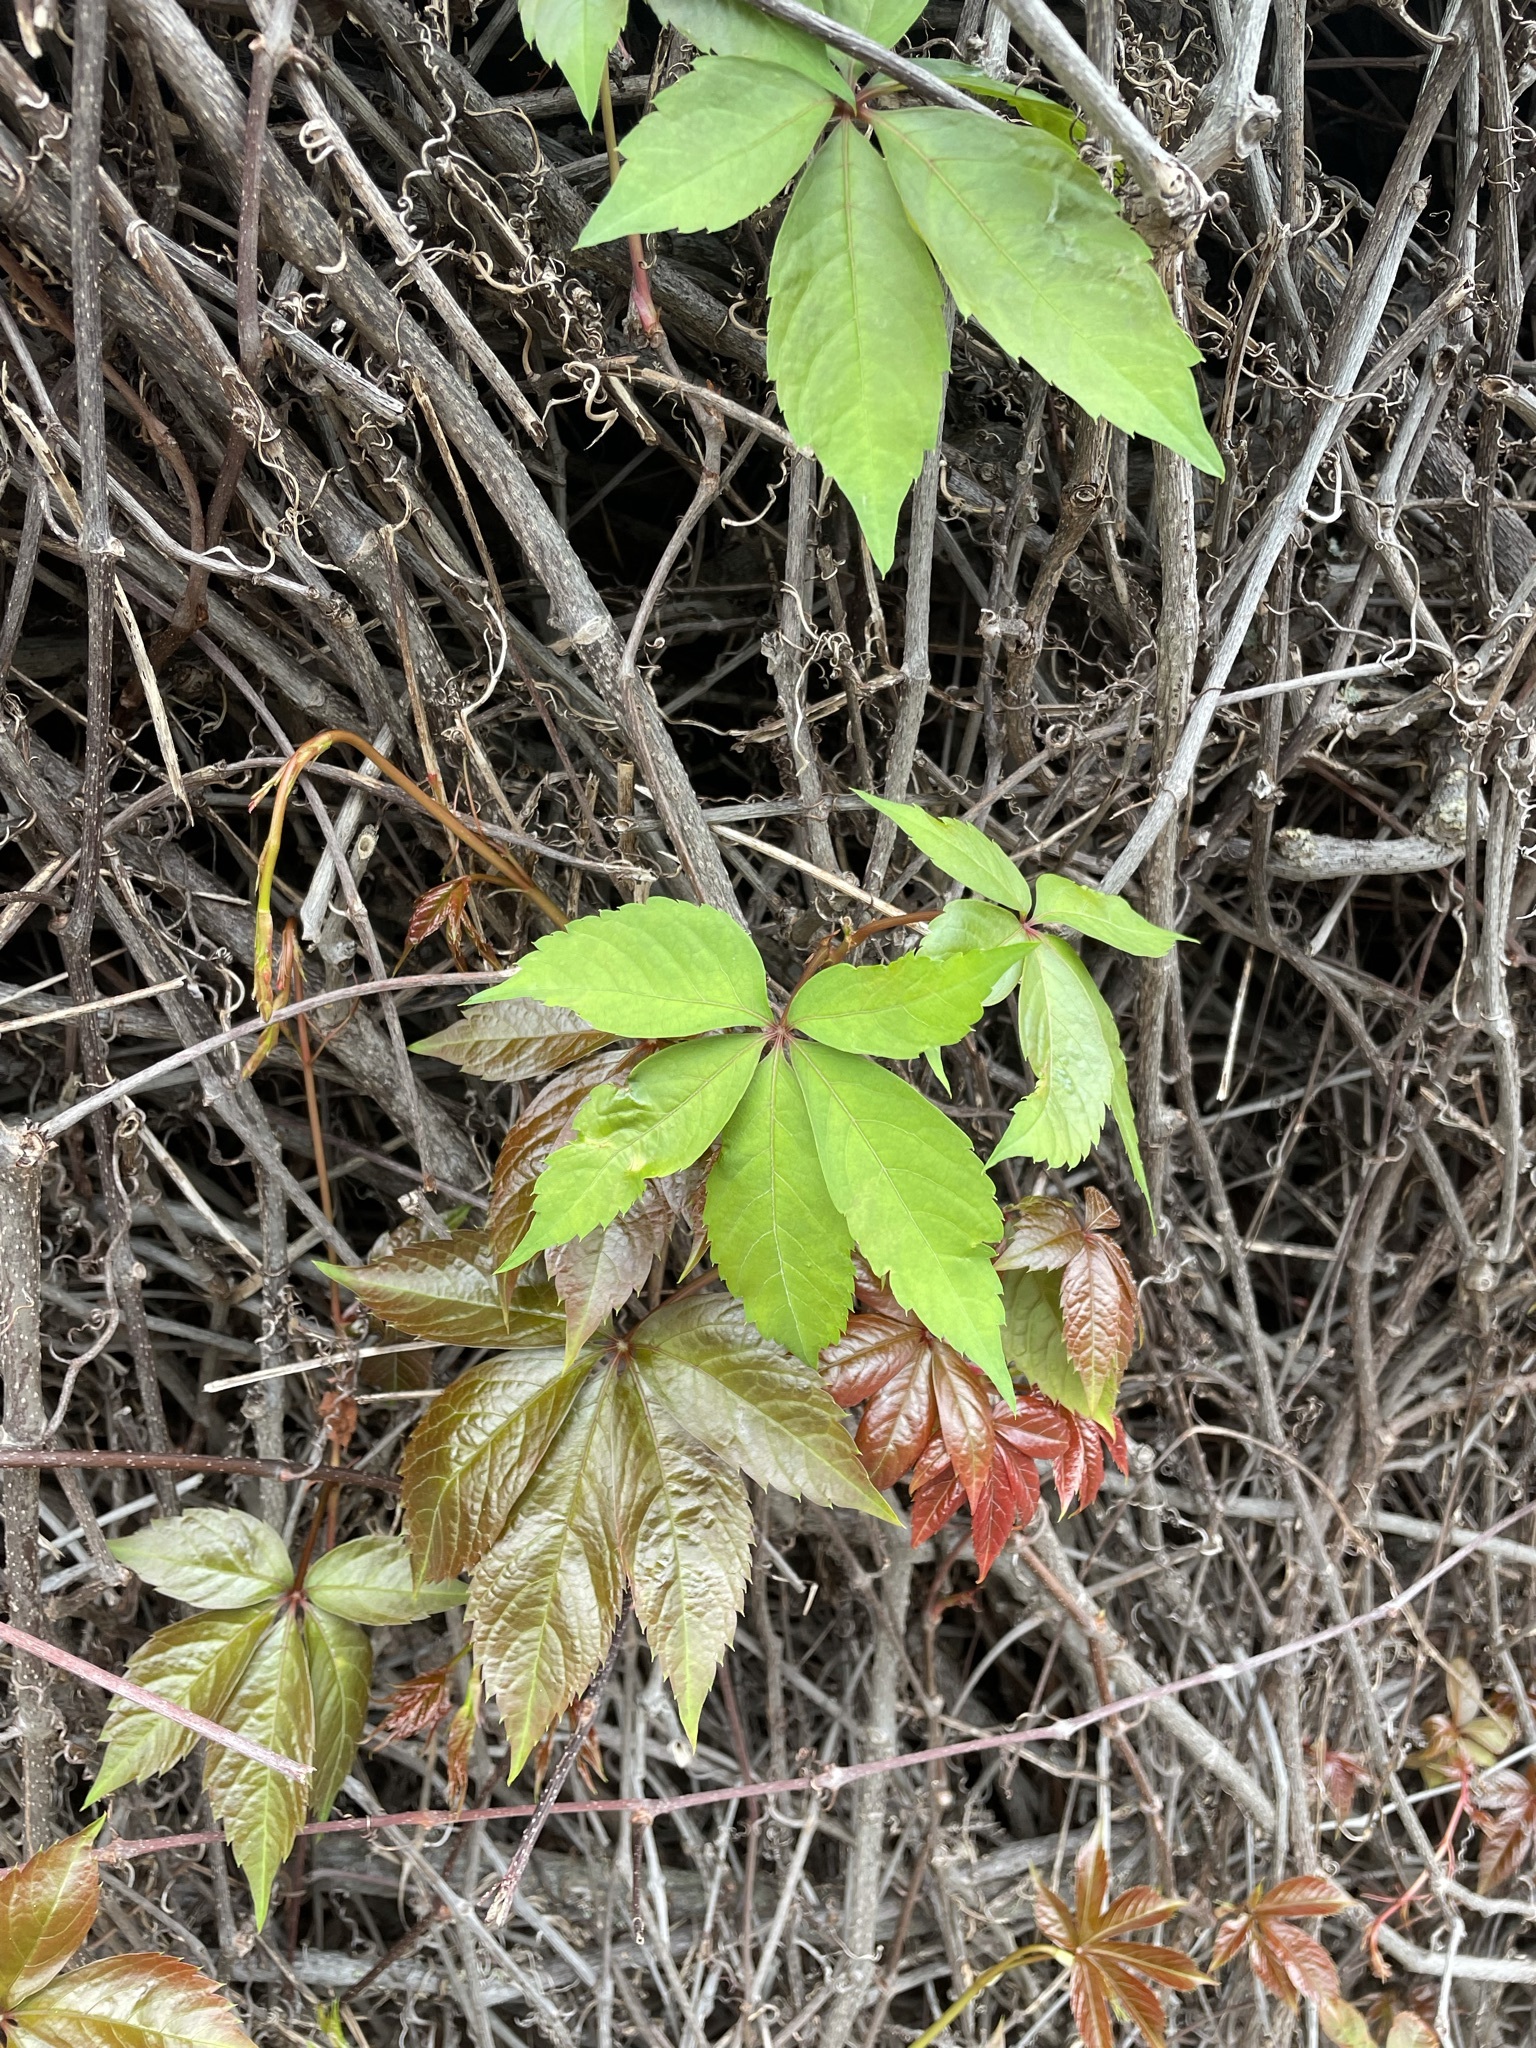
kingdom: Plantae
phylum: Tracheophyta
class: Magnoliopsida
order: Vitales
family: Vitaceae
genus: Parthenocissus
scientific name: Parthenocissus quinquefolia
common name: Virginia-creeper
